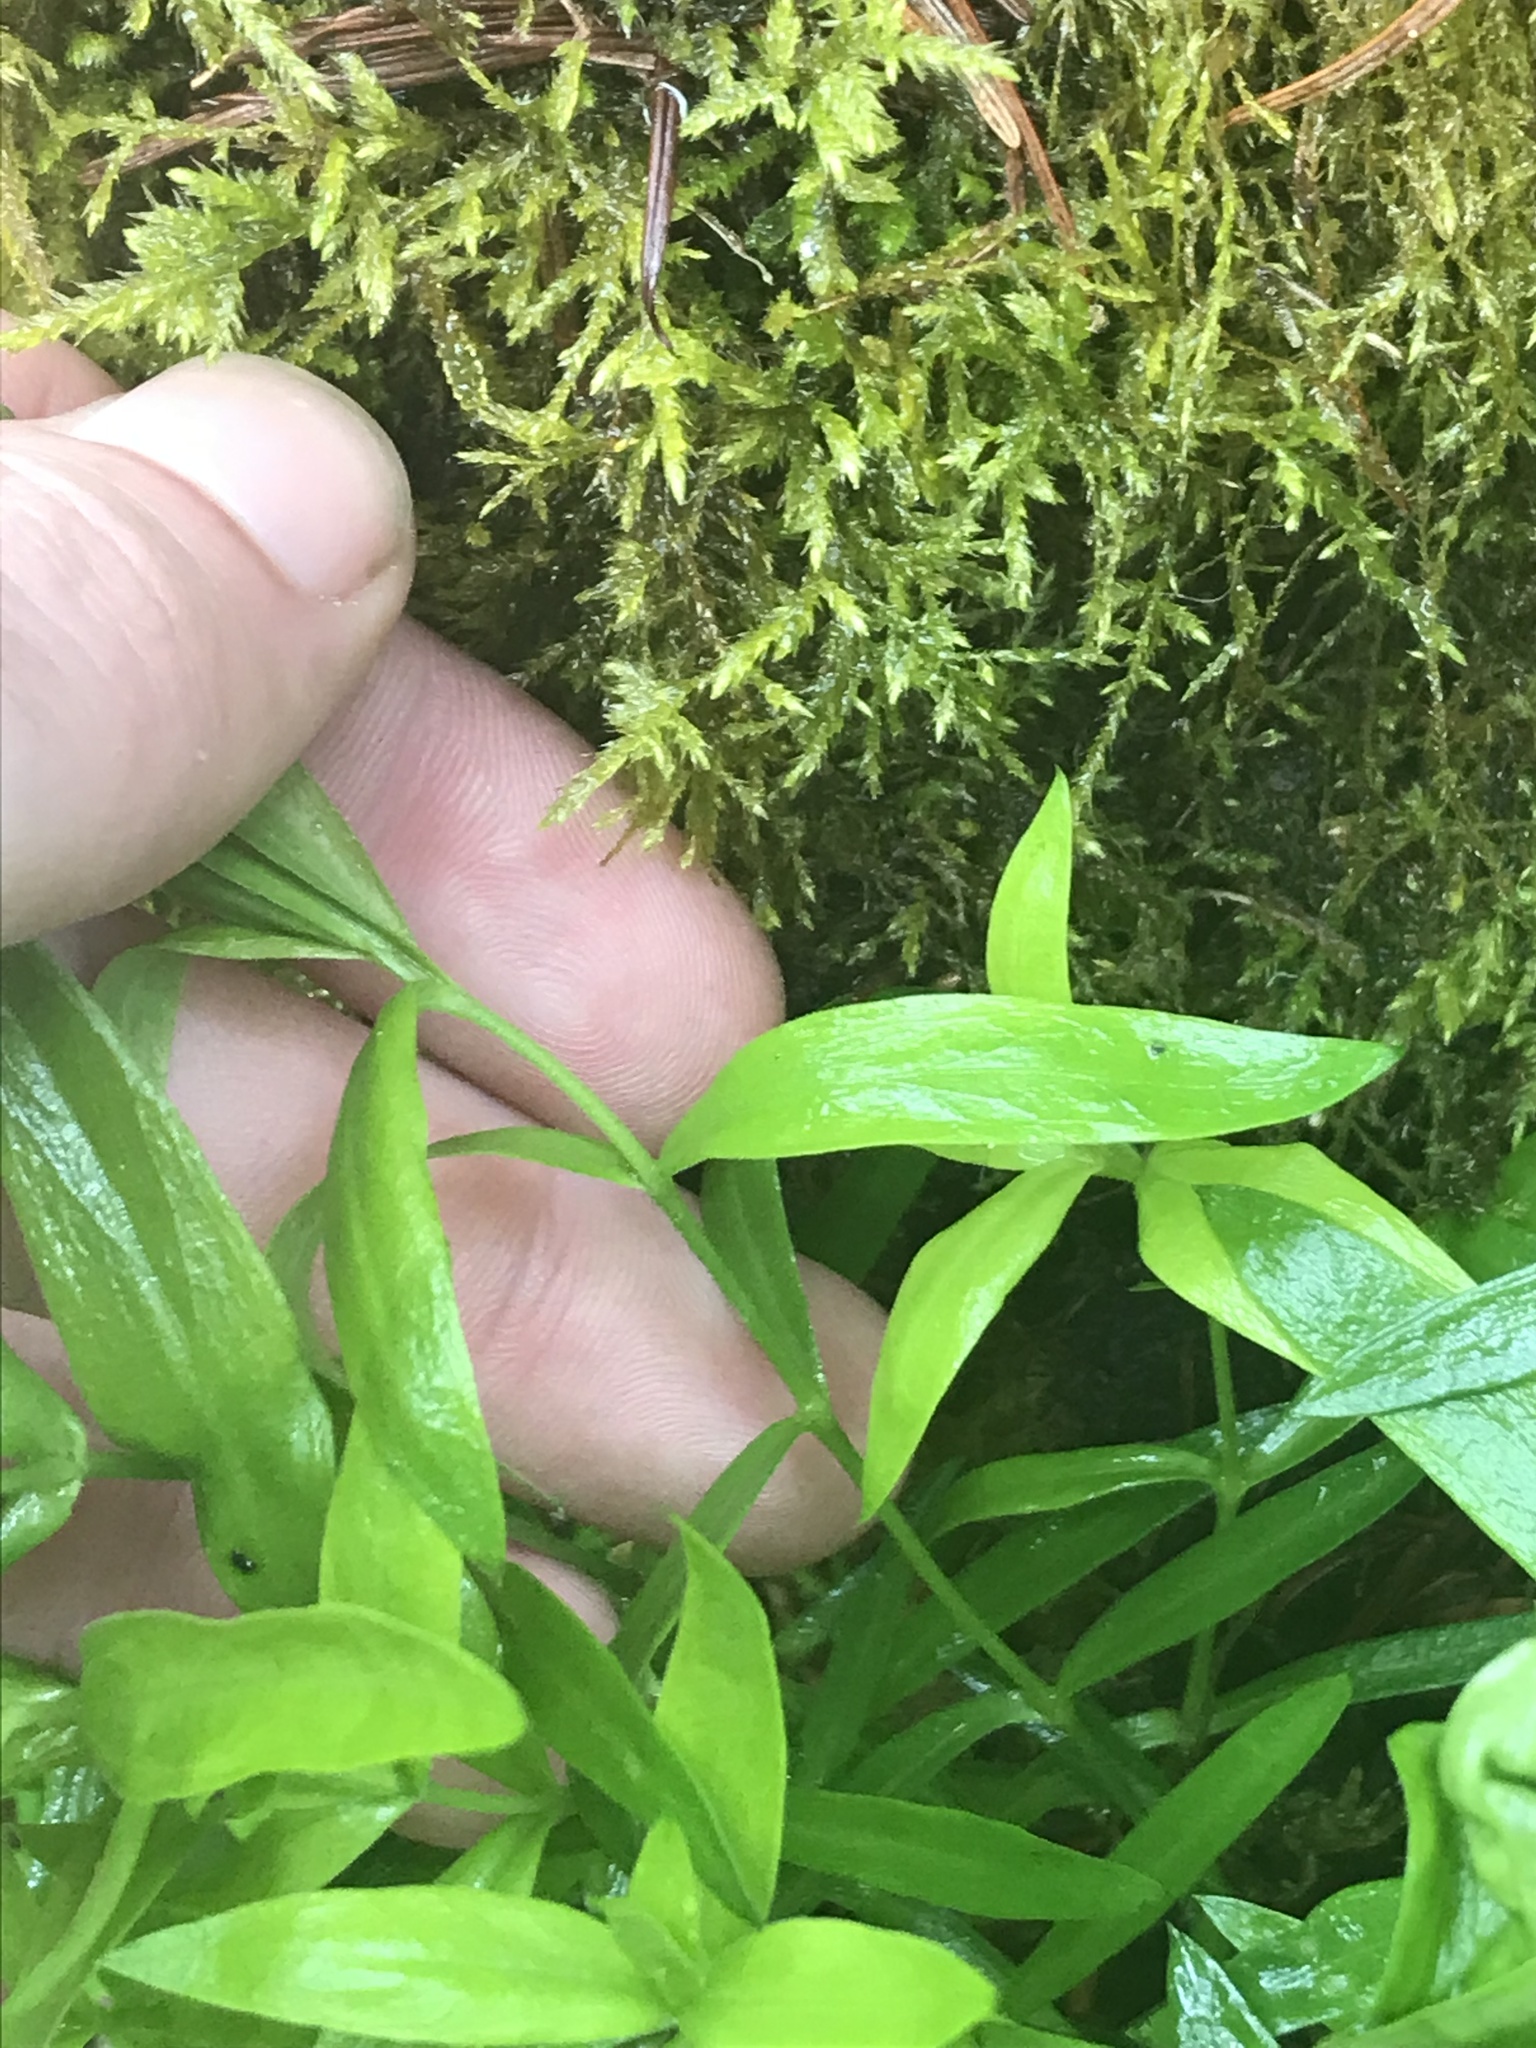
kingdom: Plantae
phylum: Tracheophyta
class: Magnoliopsida
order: Caryophyllales
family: Caryophyllaceae
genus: Moehringia
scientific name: Moehringia macrophylla
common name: Big-leaf sandwort
